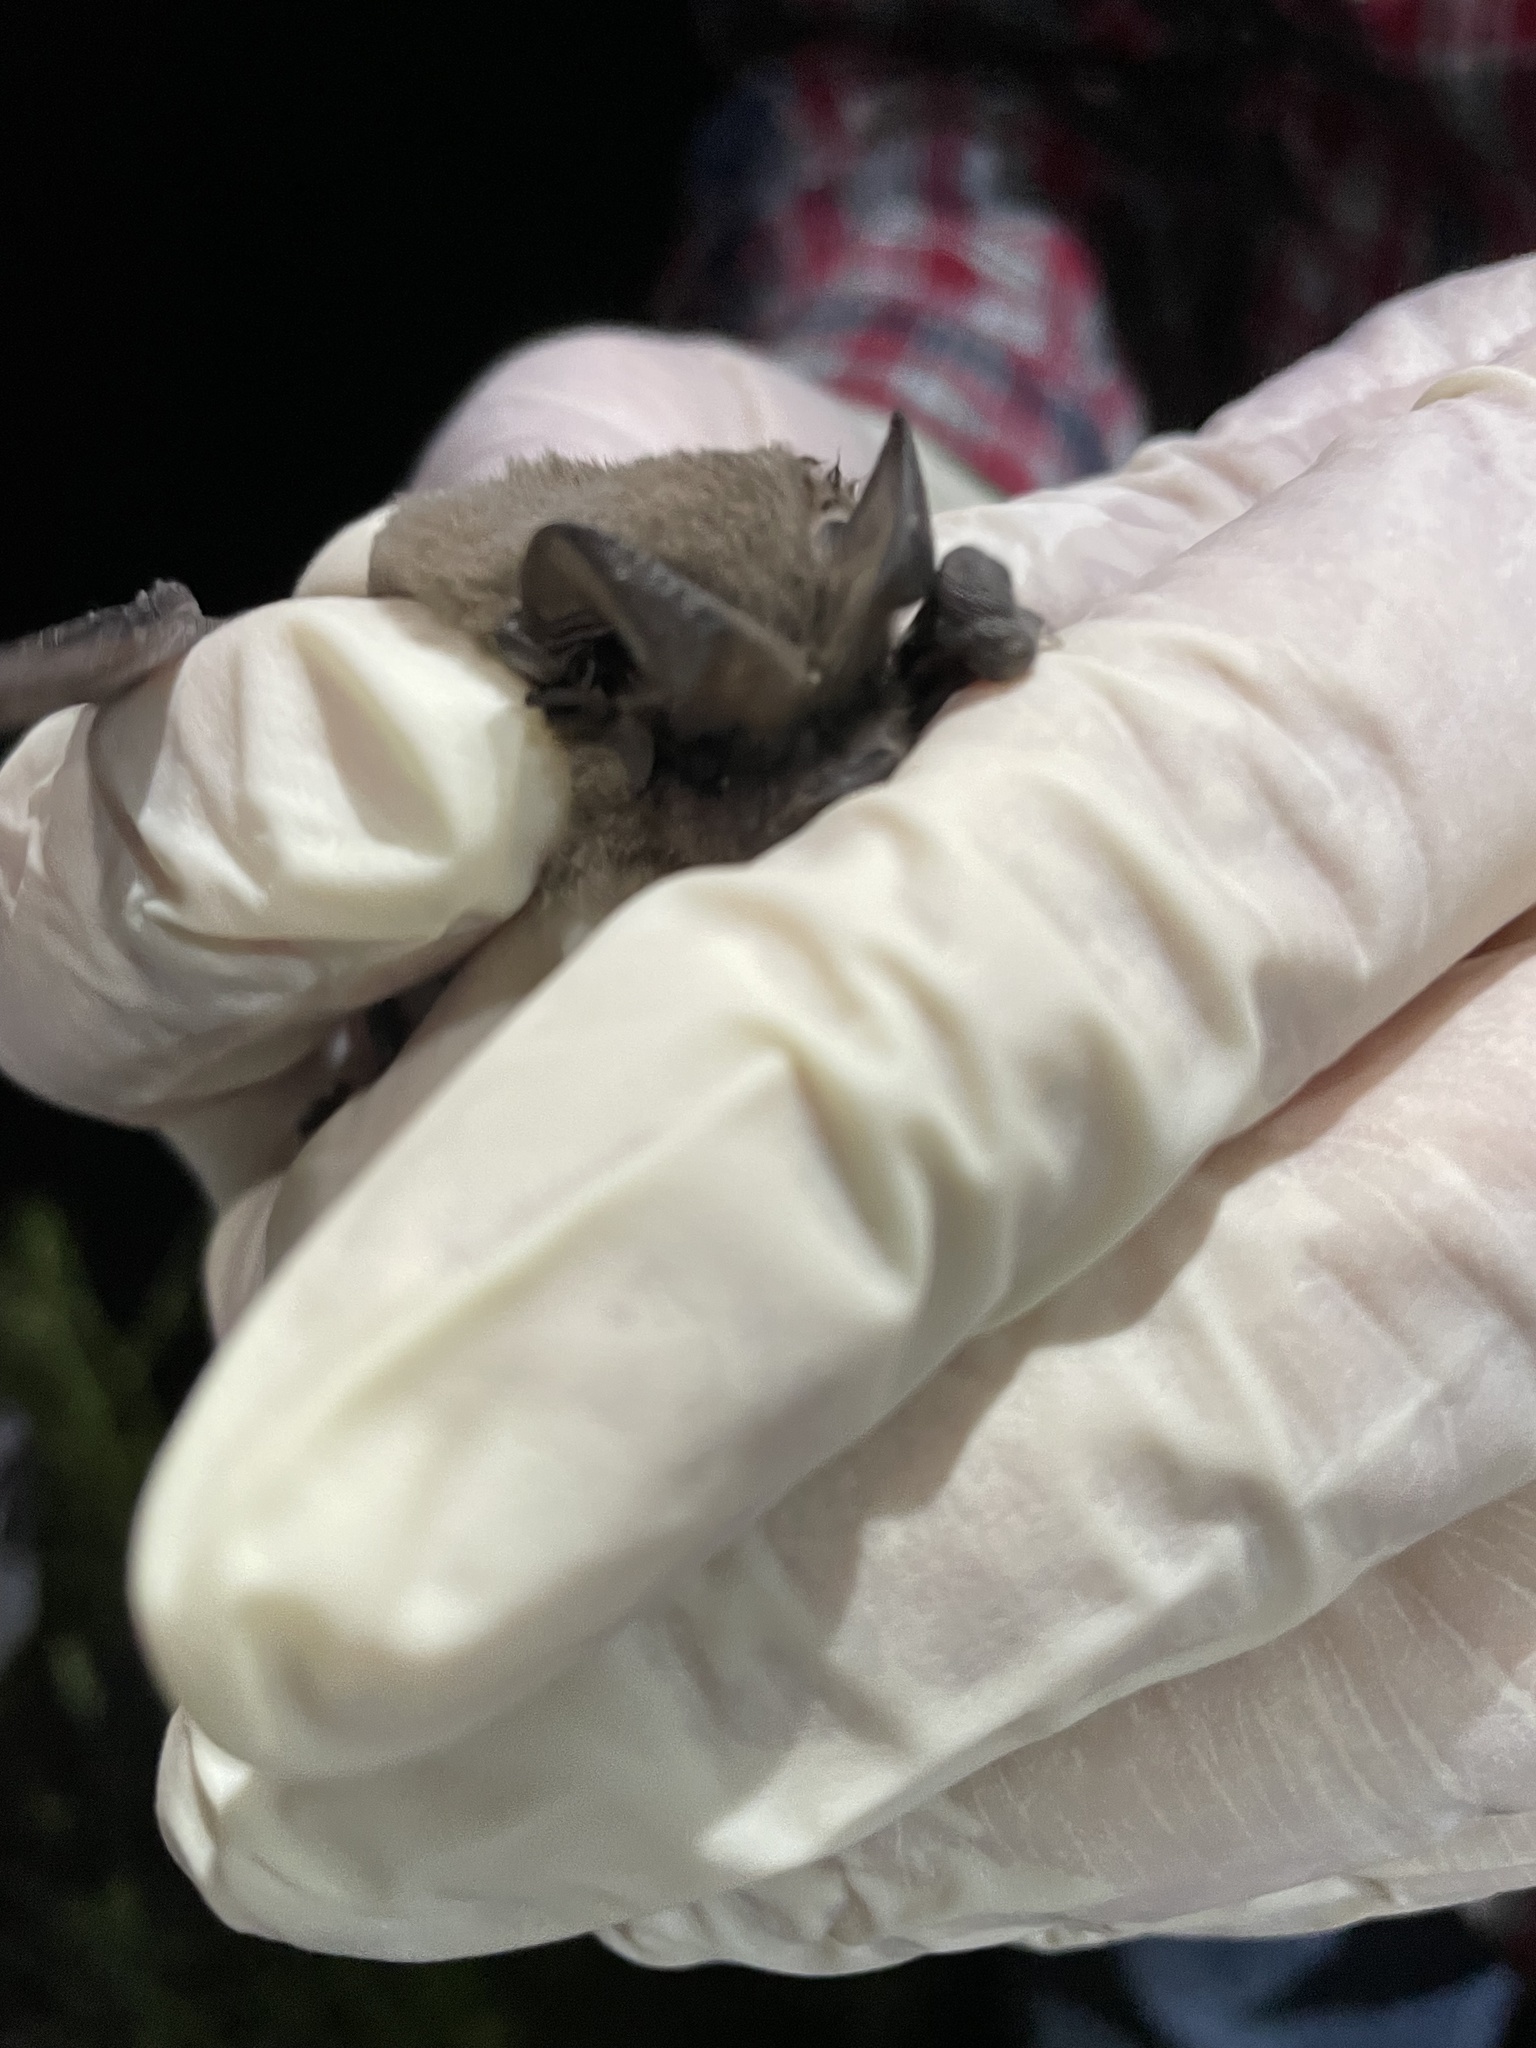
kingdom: Animalia
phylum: Chordata
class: Mammalia
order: Chiroptera
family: Molossidae
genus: Tadarida
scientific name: Tadarida brasiliensis
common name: Mexican free-tailed bat
